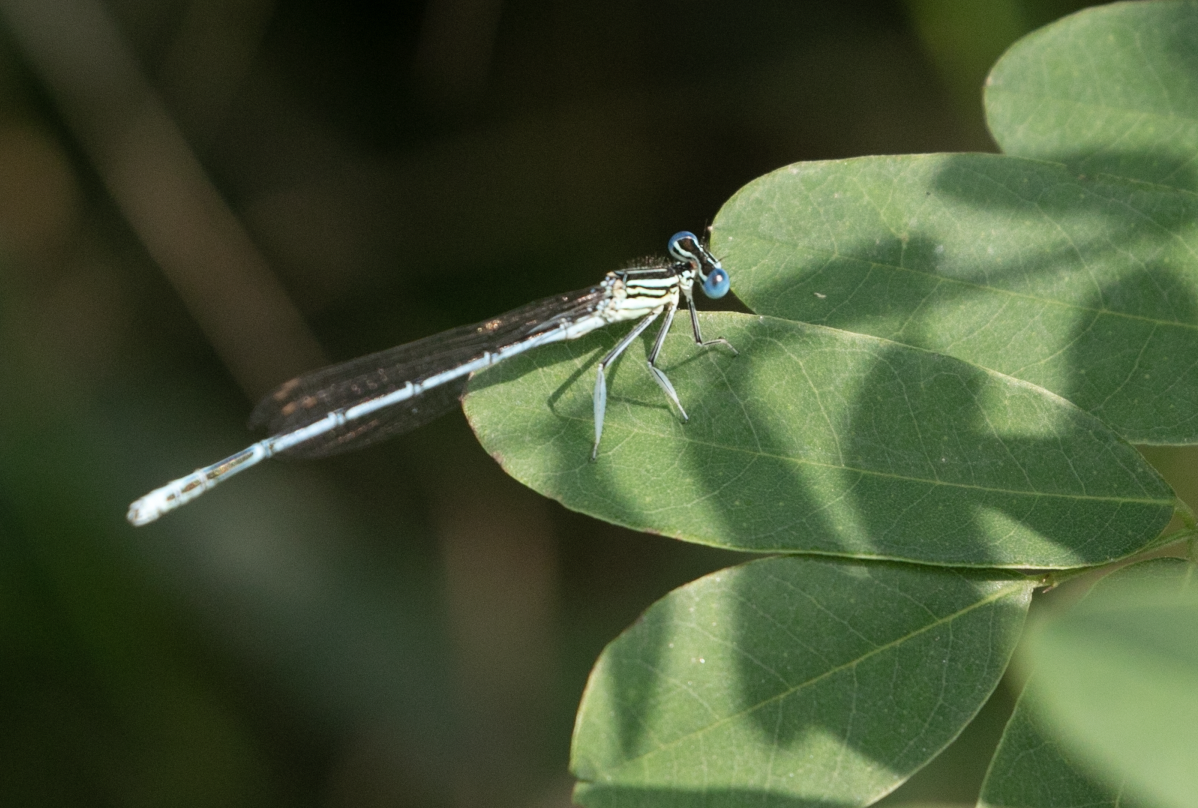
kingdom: Animalia
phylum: Arthropoda
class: Insecta
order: Odonata
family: Platycnemididae
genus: Platycnemis
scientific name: Platycnemis pennipes
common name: White-legged damselfly
